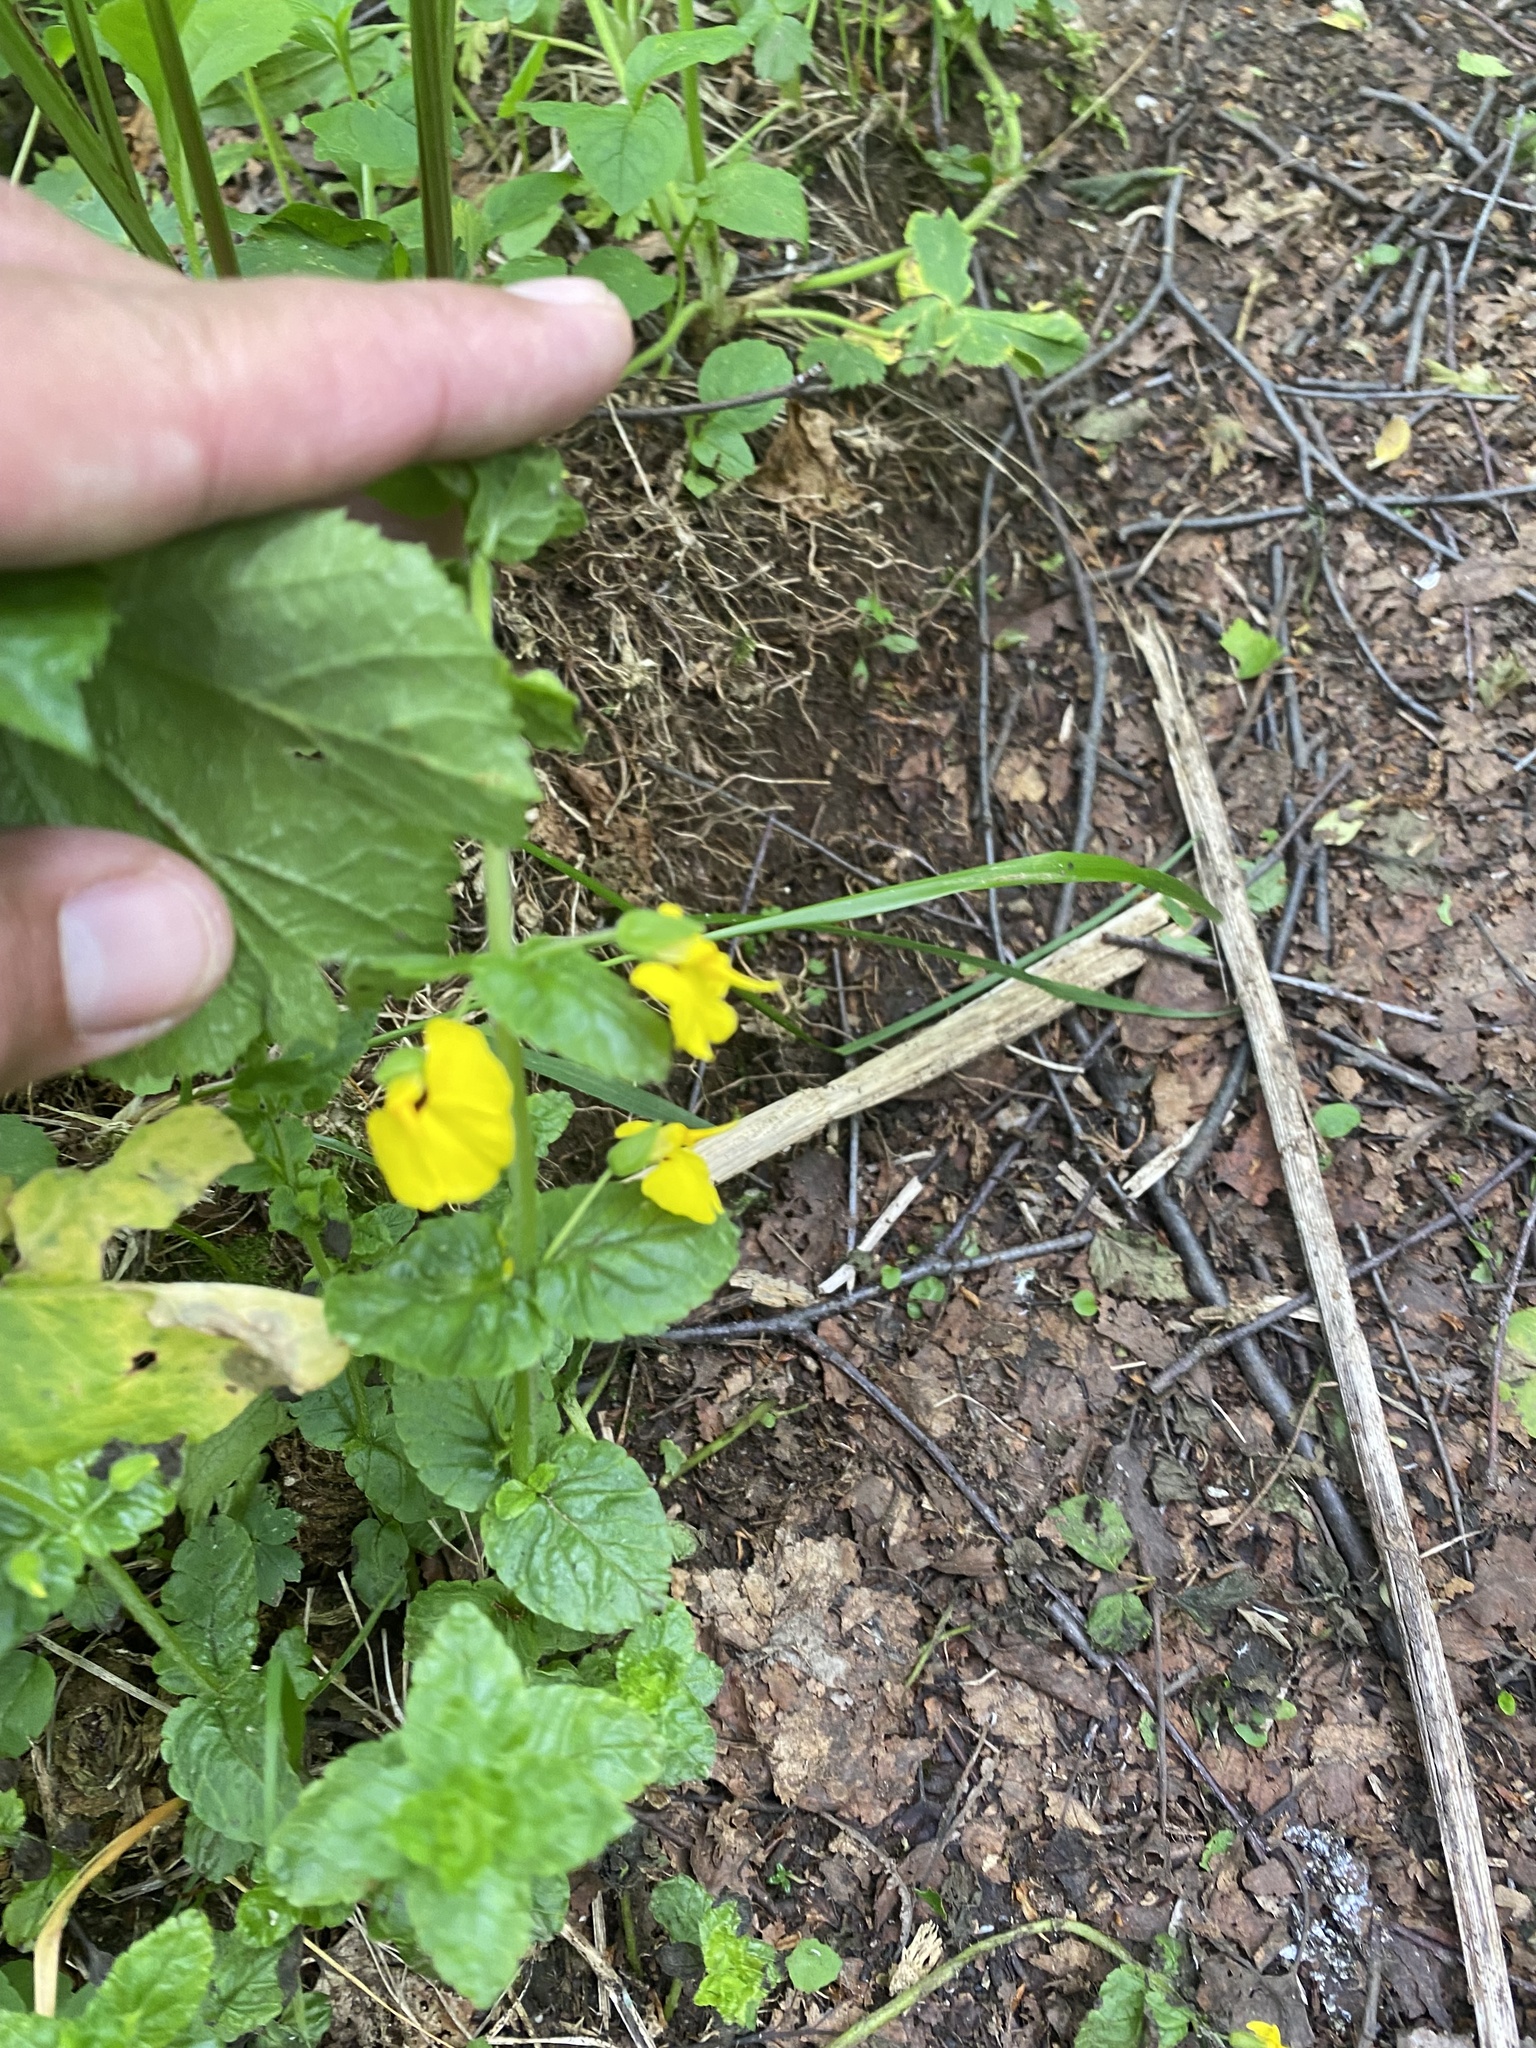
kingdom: Plantae
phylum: Tracheophyta
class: Magnoliopsida
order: Lamiales
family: Orobanchaceae
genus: Rhynchocorys
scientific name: Rhynchocorys elephas
